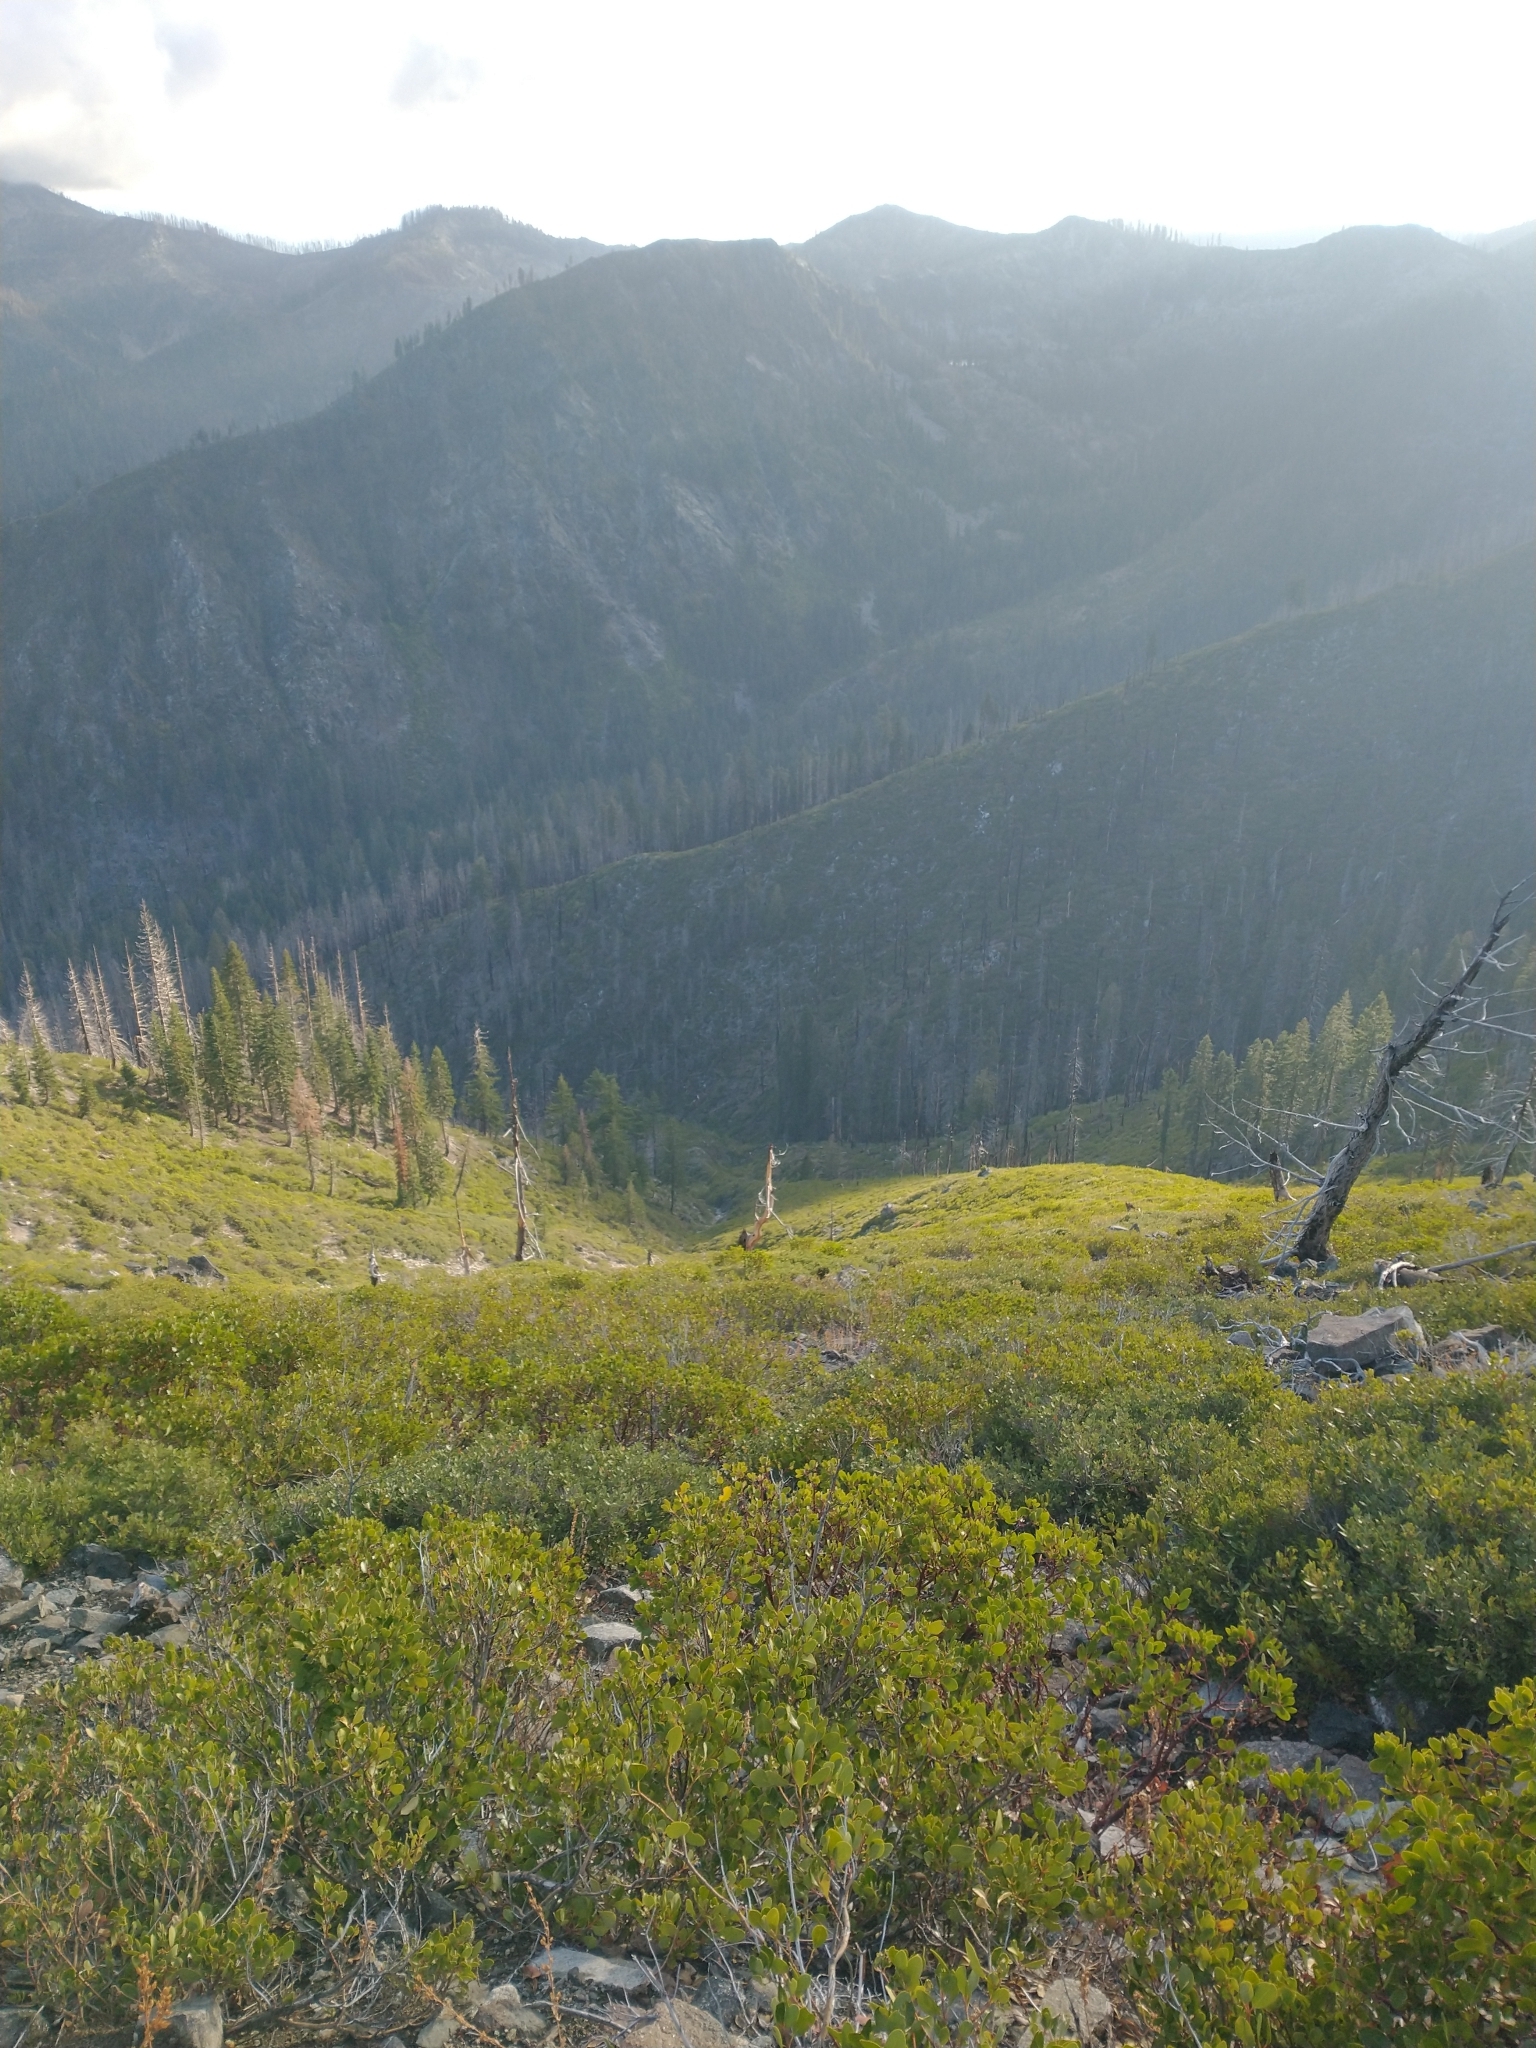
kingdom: Plantae
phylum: Tracheophyta
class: Magnoliopsida
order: Ericales
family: Ericaceae
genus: Arctostaphylos
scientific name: Arctostaphylos patula
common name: Green-leaf manzanita
